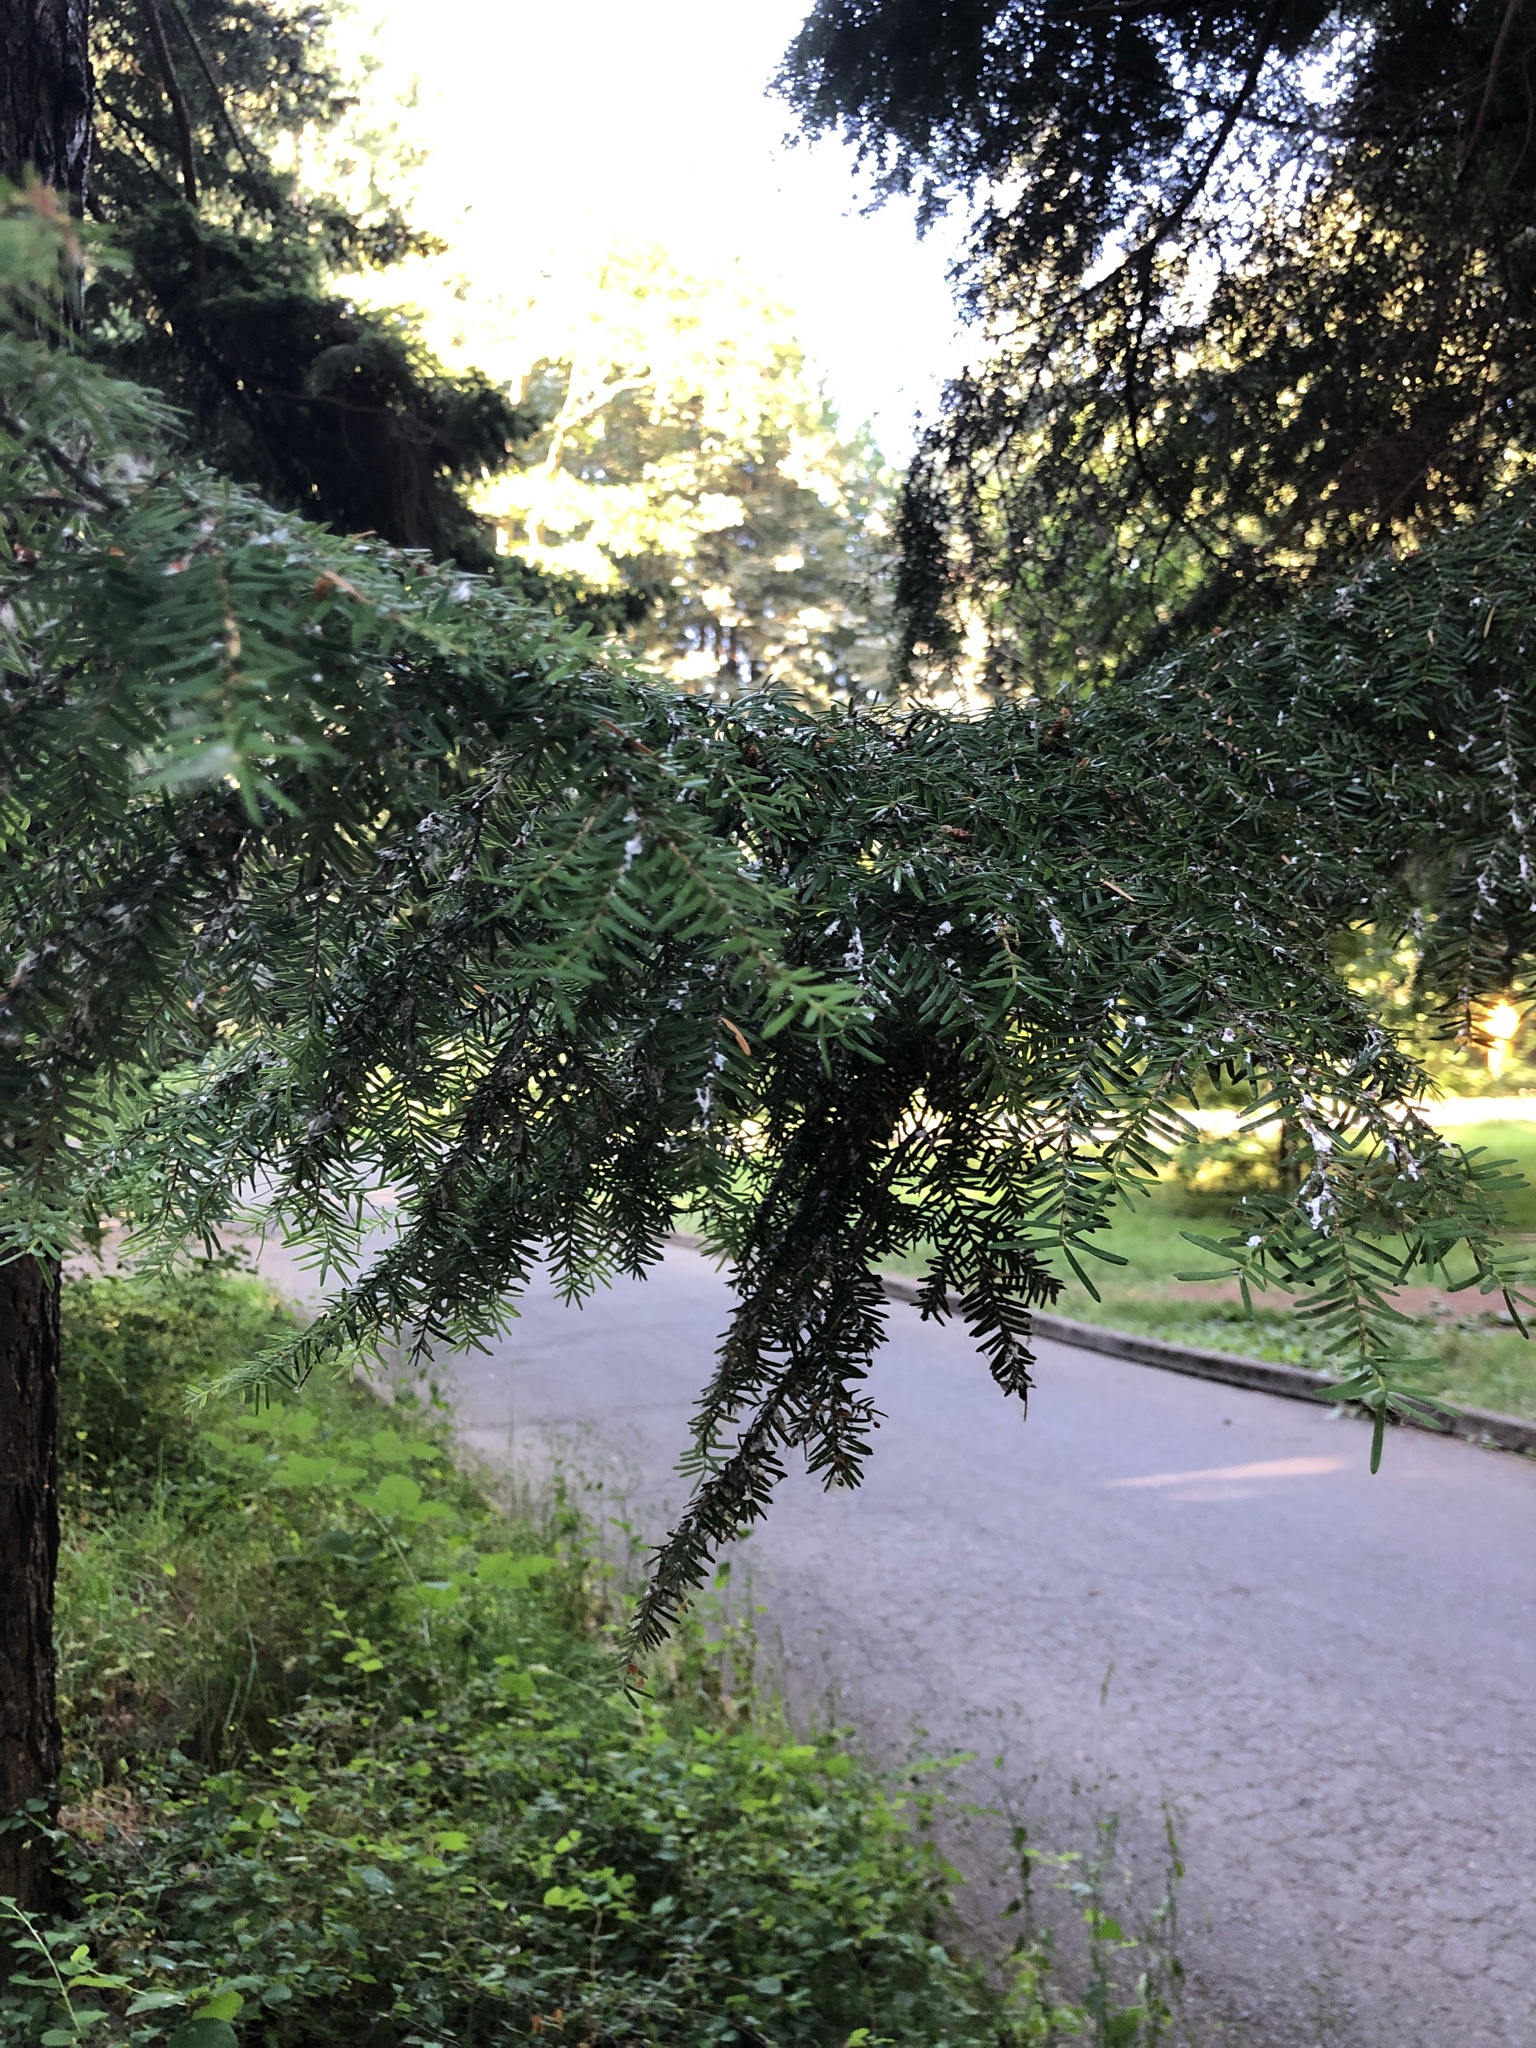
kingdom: Plantae
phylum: Tracheophyta
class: Pinopsida
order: Pinales
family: Pinaceae
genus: Tsuga
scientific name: Tsuga heterophylla
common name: Western hemlock
